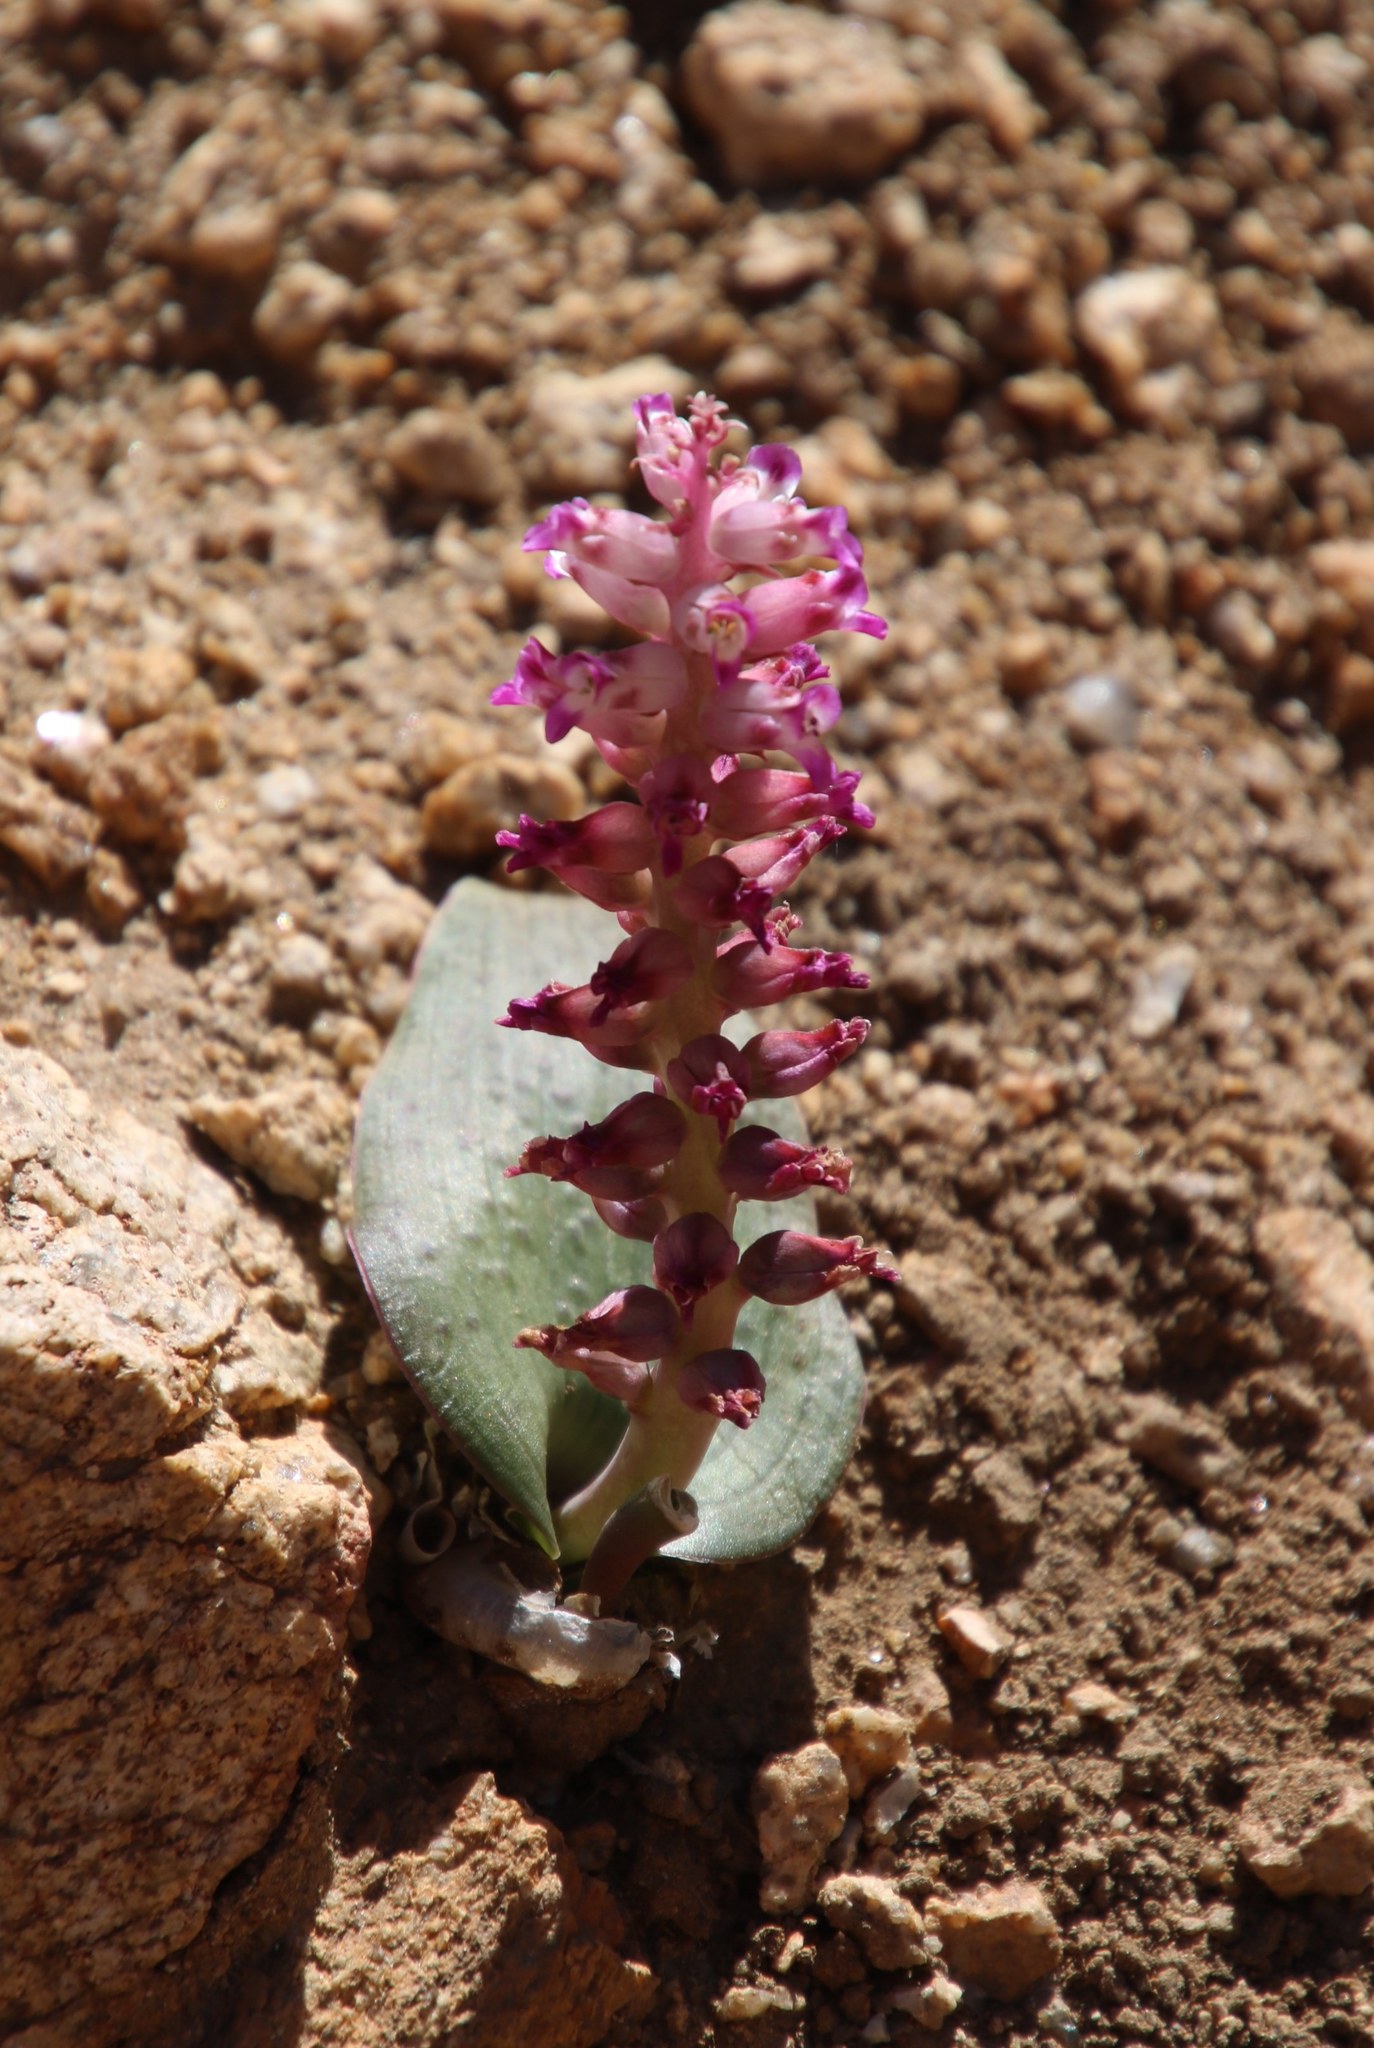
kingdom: Plantae
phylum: Tracheophyta
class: Liliopsida
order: Asparagales
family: Asparagaceae
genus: Lachenalia
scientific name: Lachenalia carnosa
